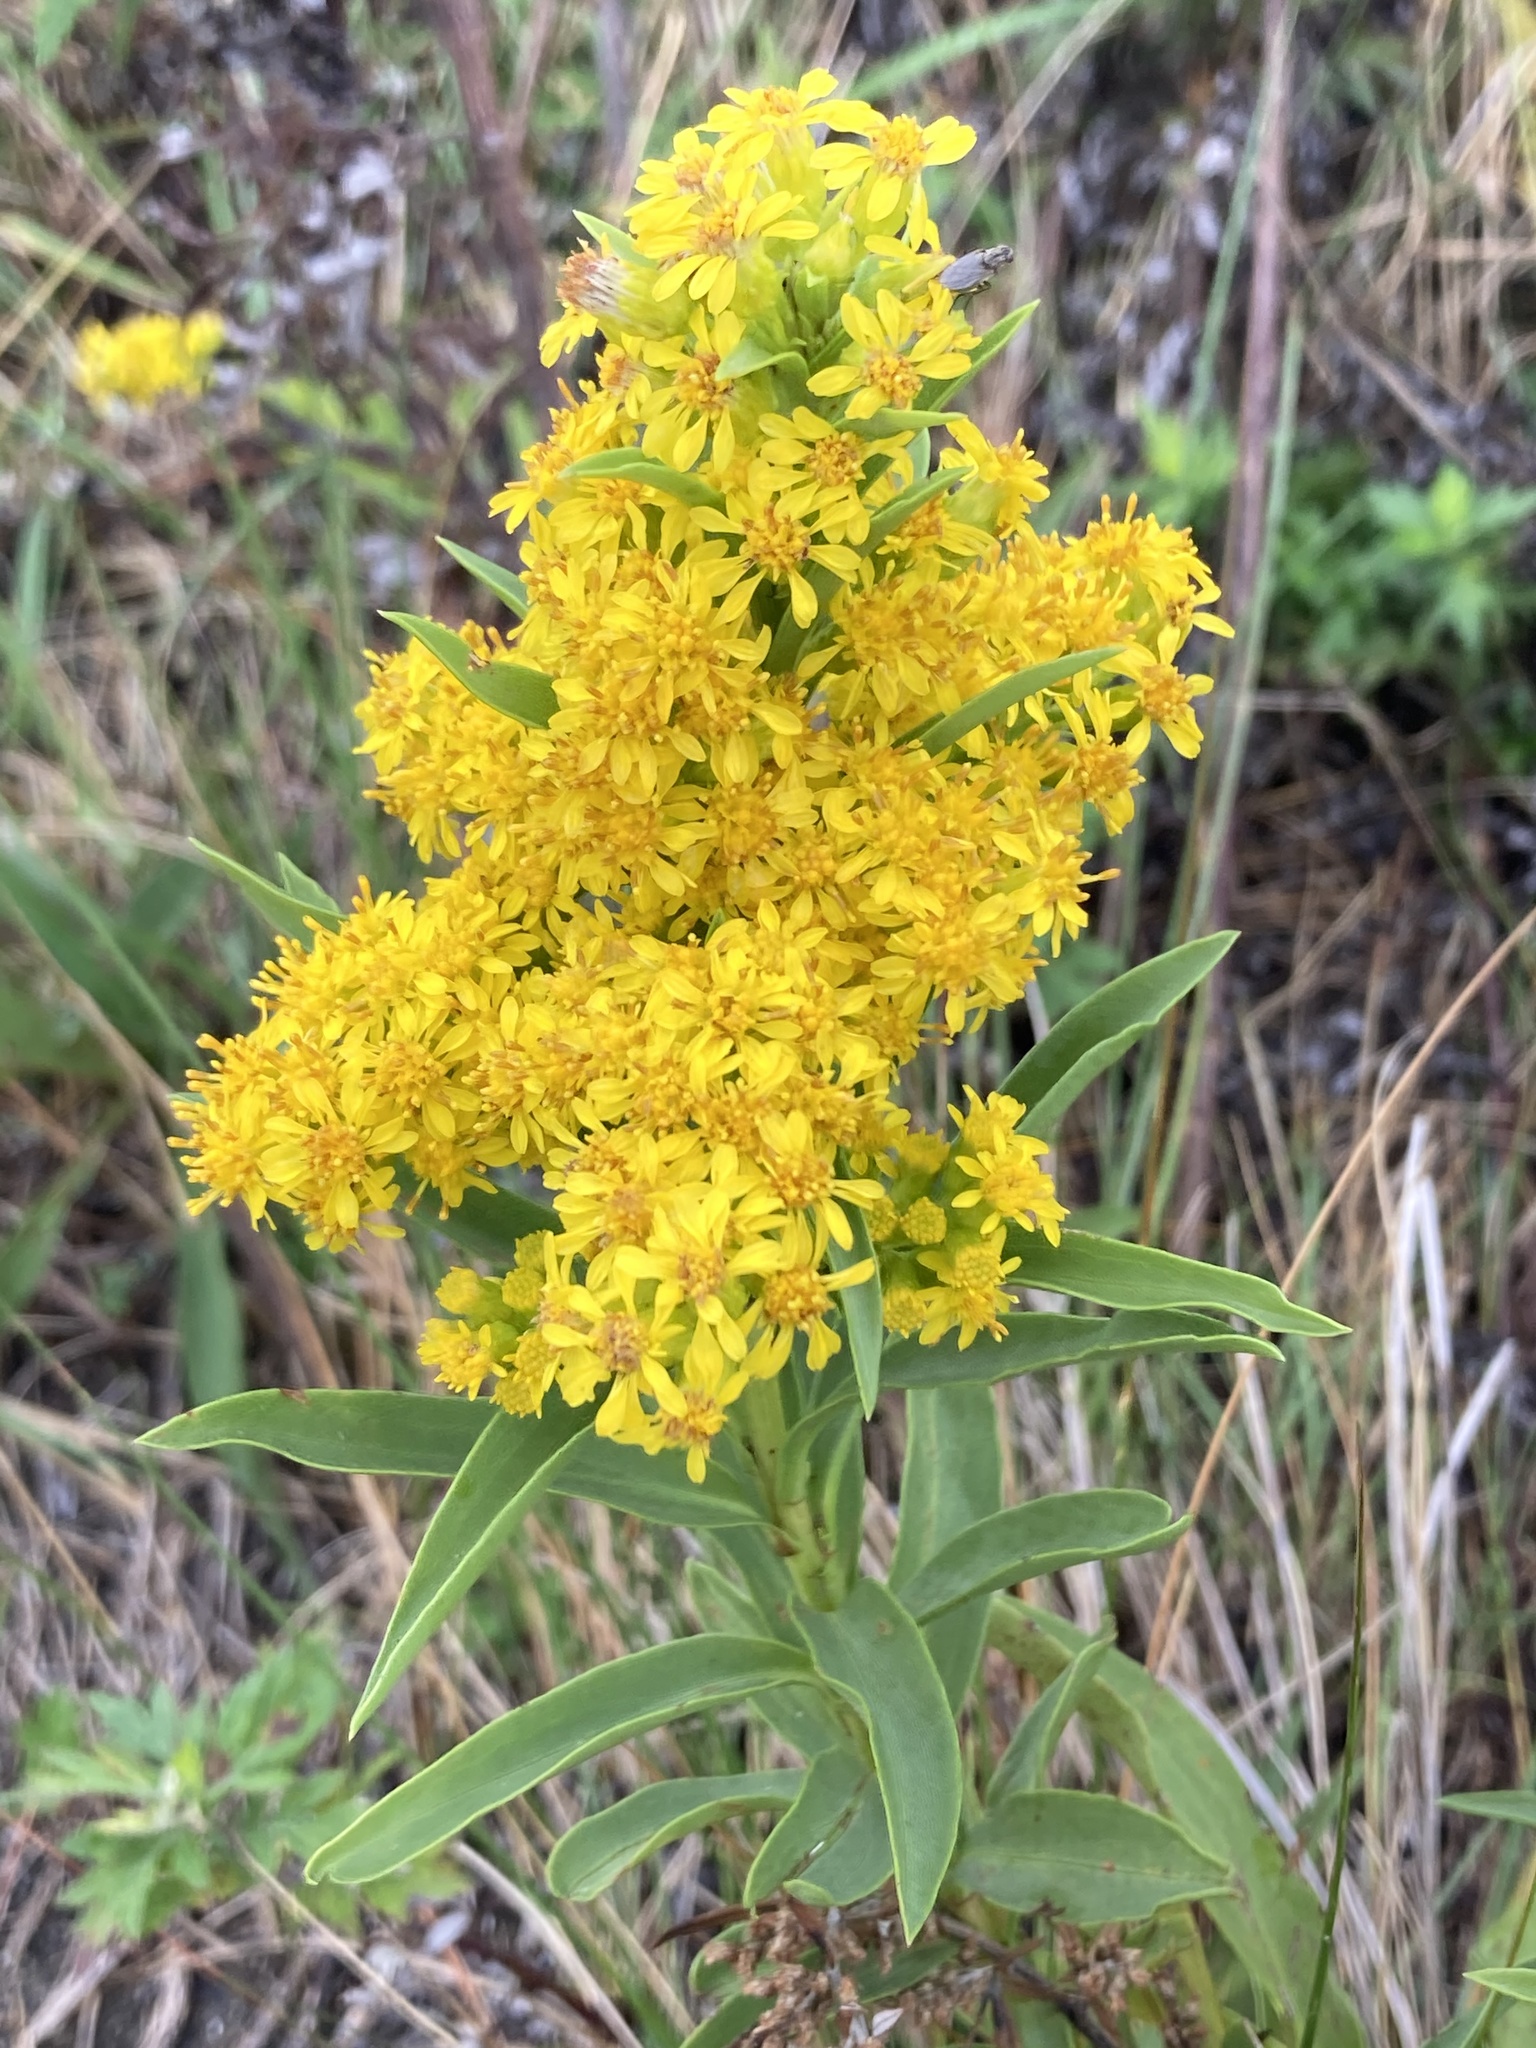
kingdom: Plantae
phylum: Tracheophyta
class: Magnoliopsida
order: Asterales
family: Asteraceae
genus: Solidago
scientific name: Solidago sempervirens
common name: Salt-marsh goldenrod
